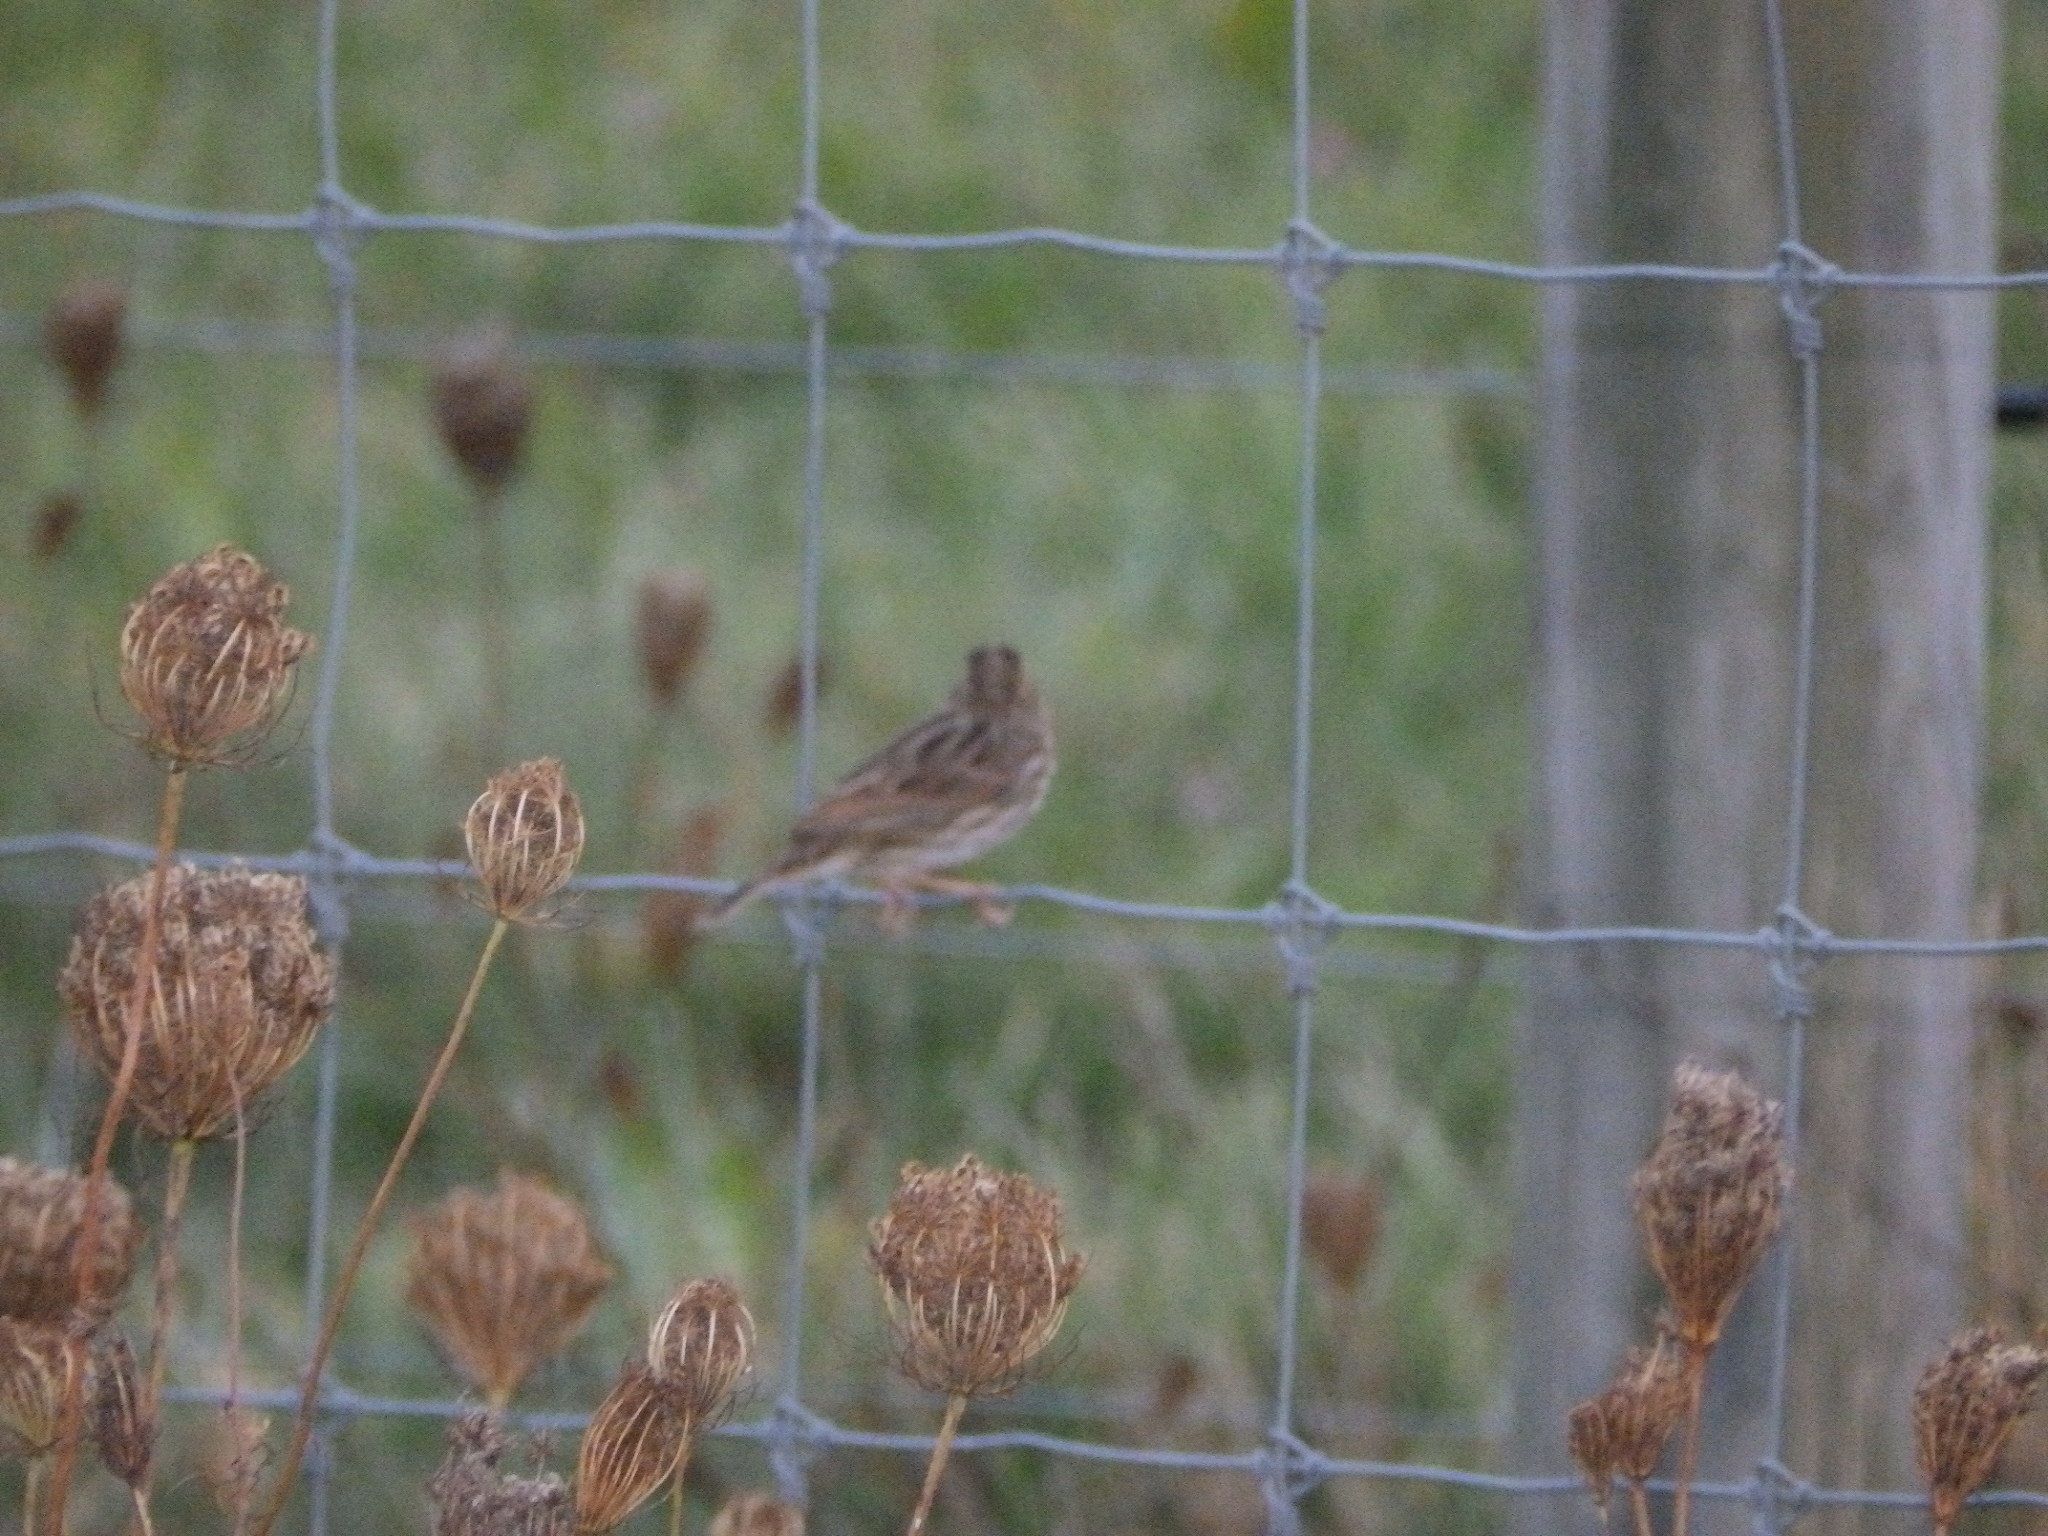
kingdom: Animalia
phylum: Chordata
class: Aves
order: Passeriformes
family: Passerellidae
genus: Passerculus
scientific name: Passerculus sandwichensis
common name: Savannah sparrow
